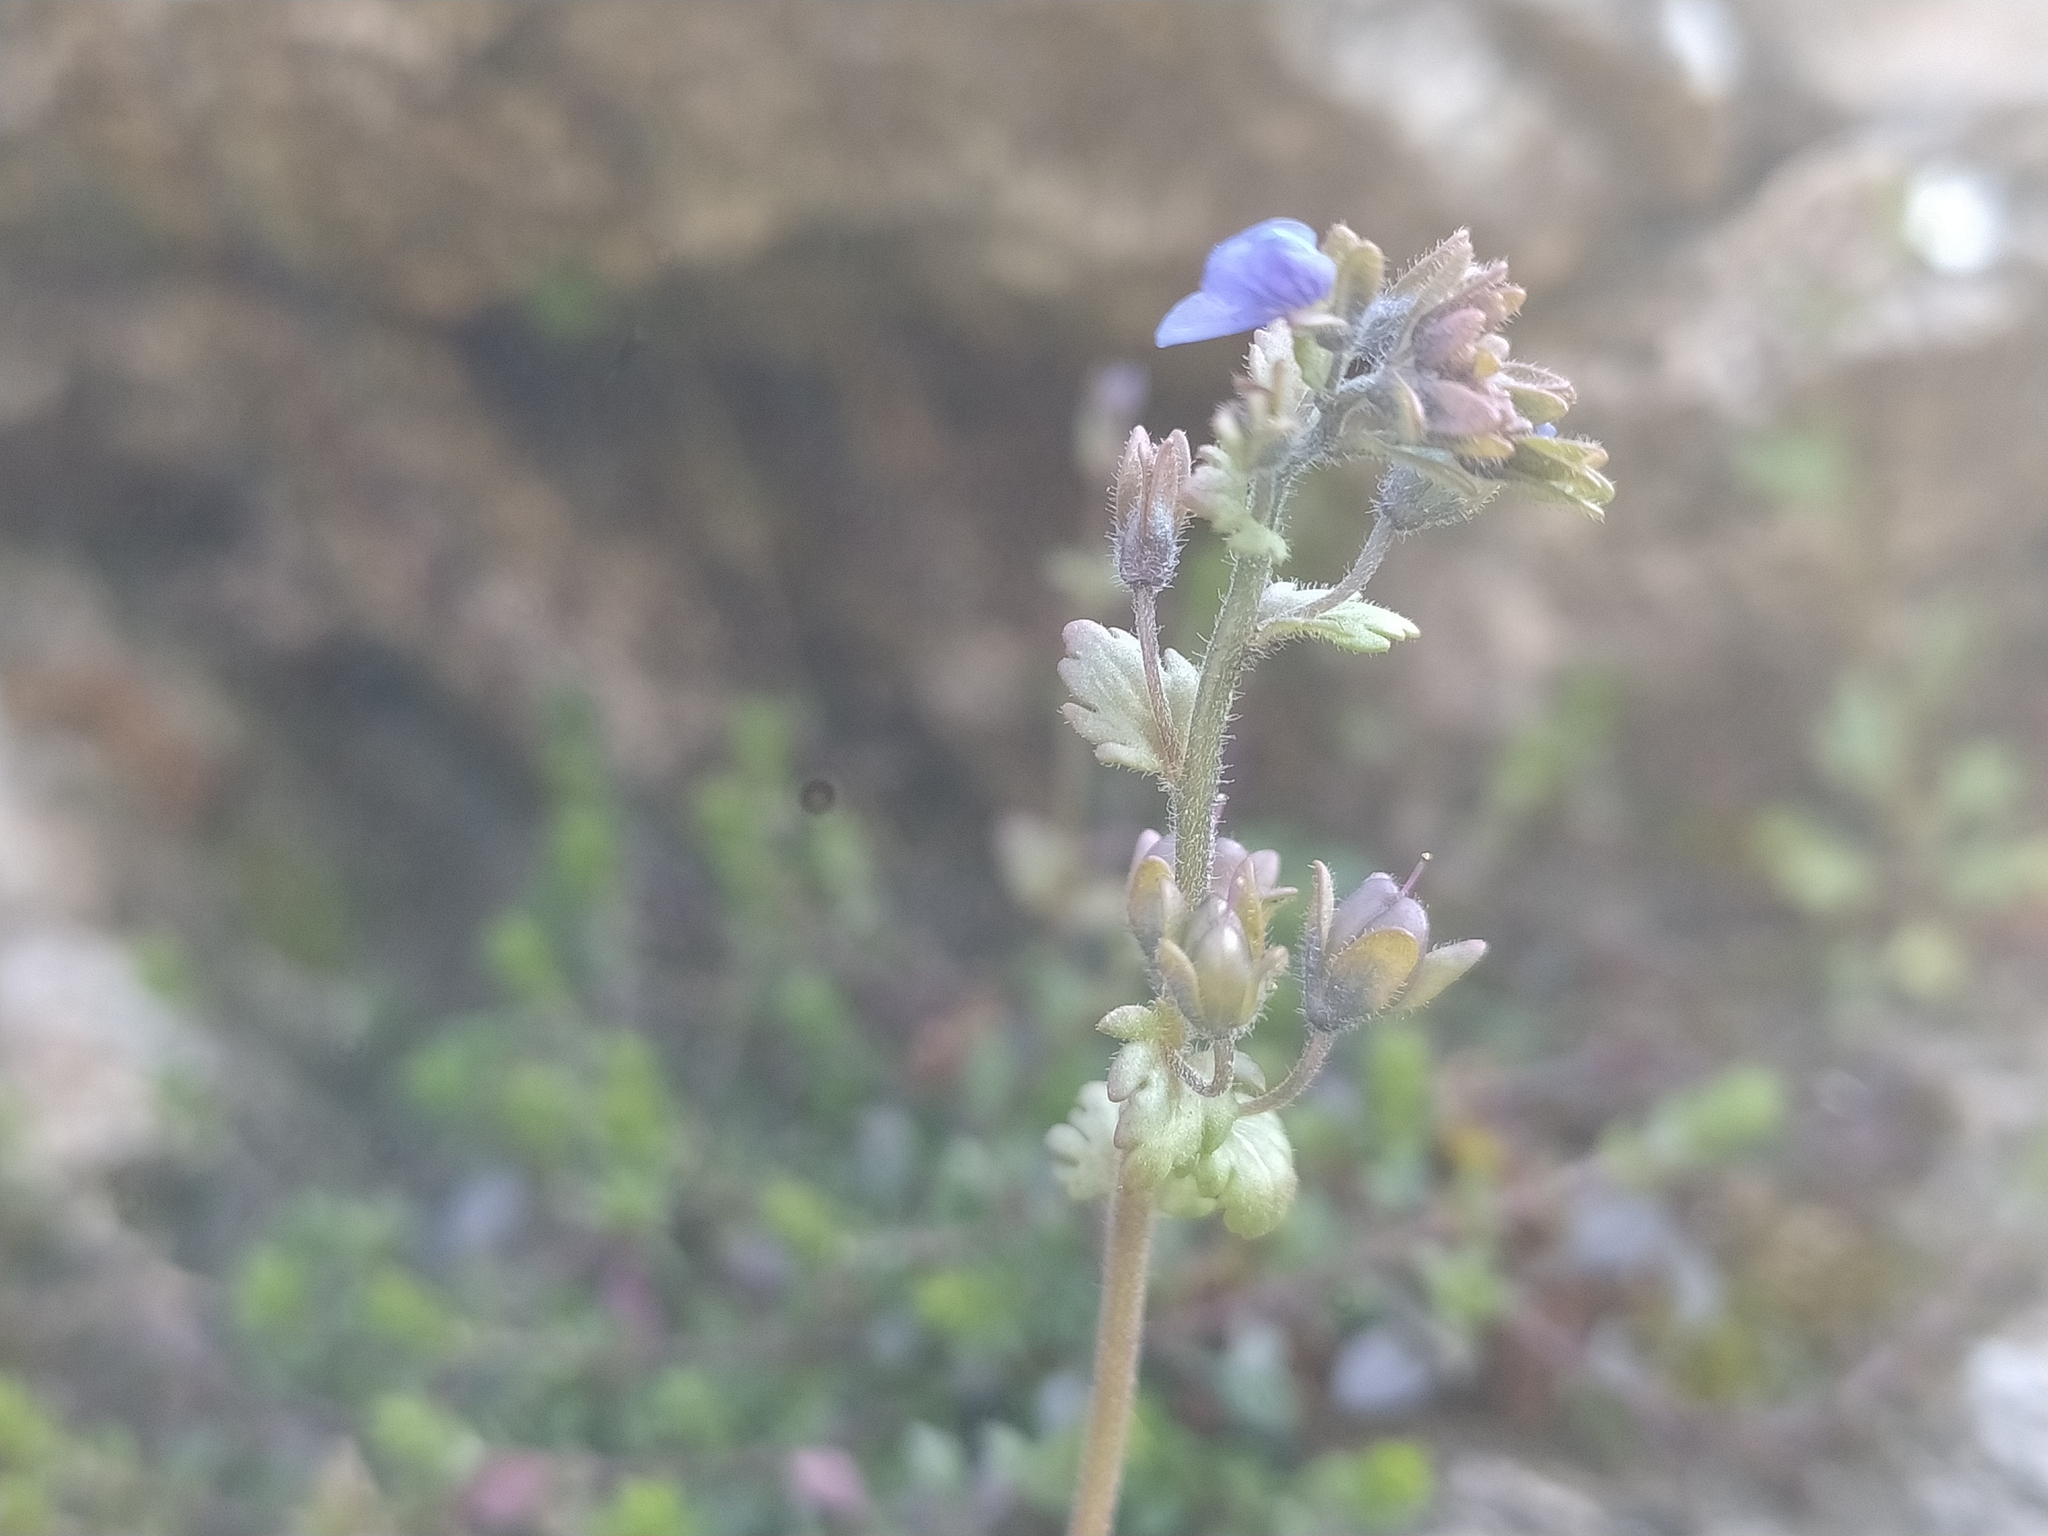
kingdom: Plantae
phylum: Tracheophyta
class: Magnoliopsida
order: Lamiales
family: Plantaginaceae
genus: Veronica
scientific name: Veronica praecox
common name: Breckland speedwell
